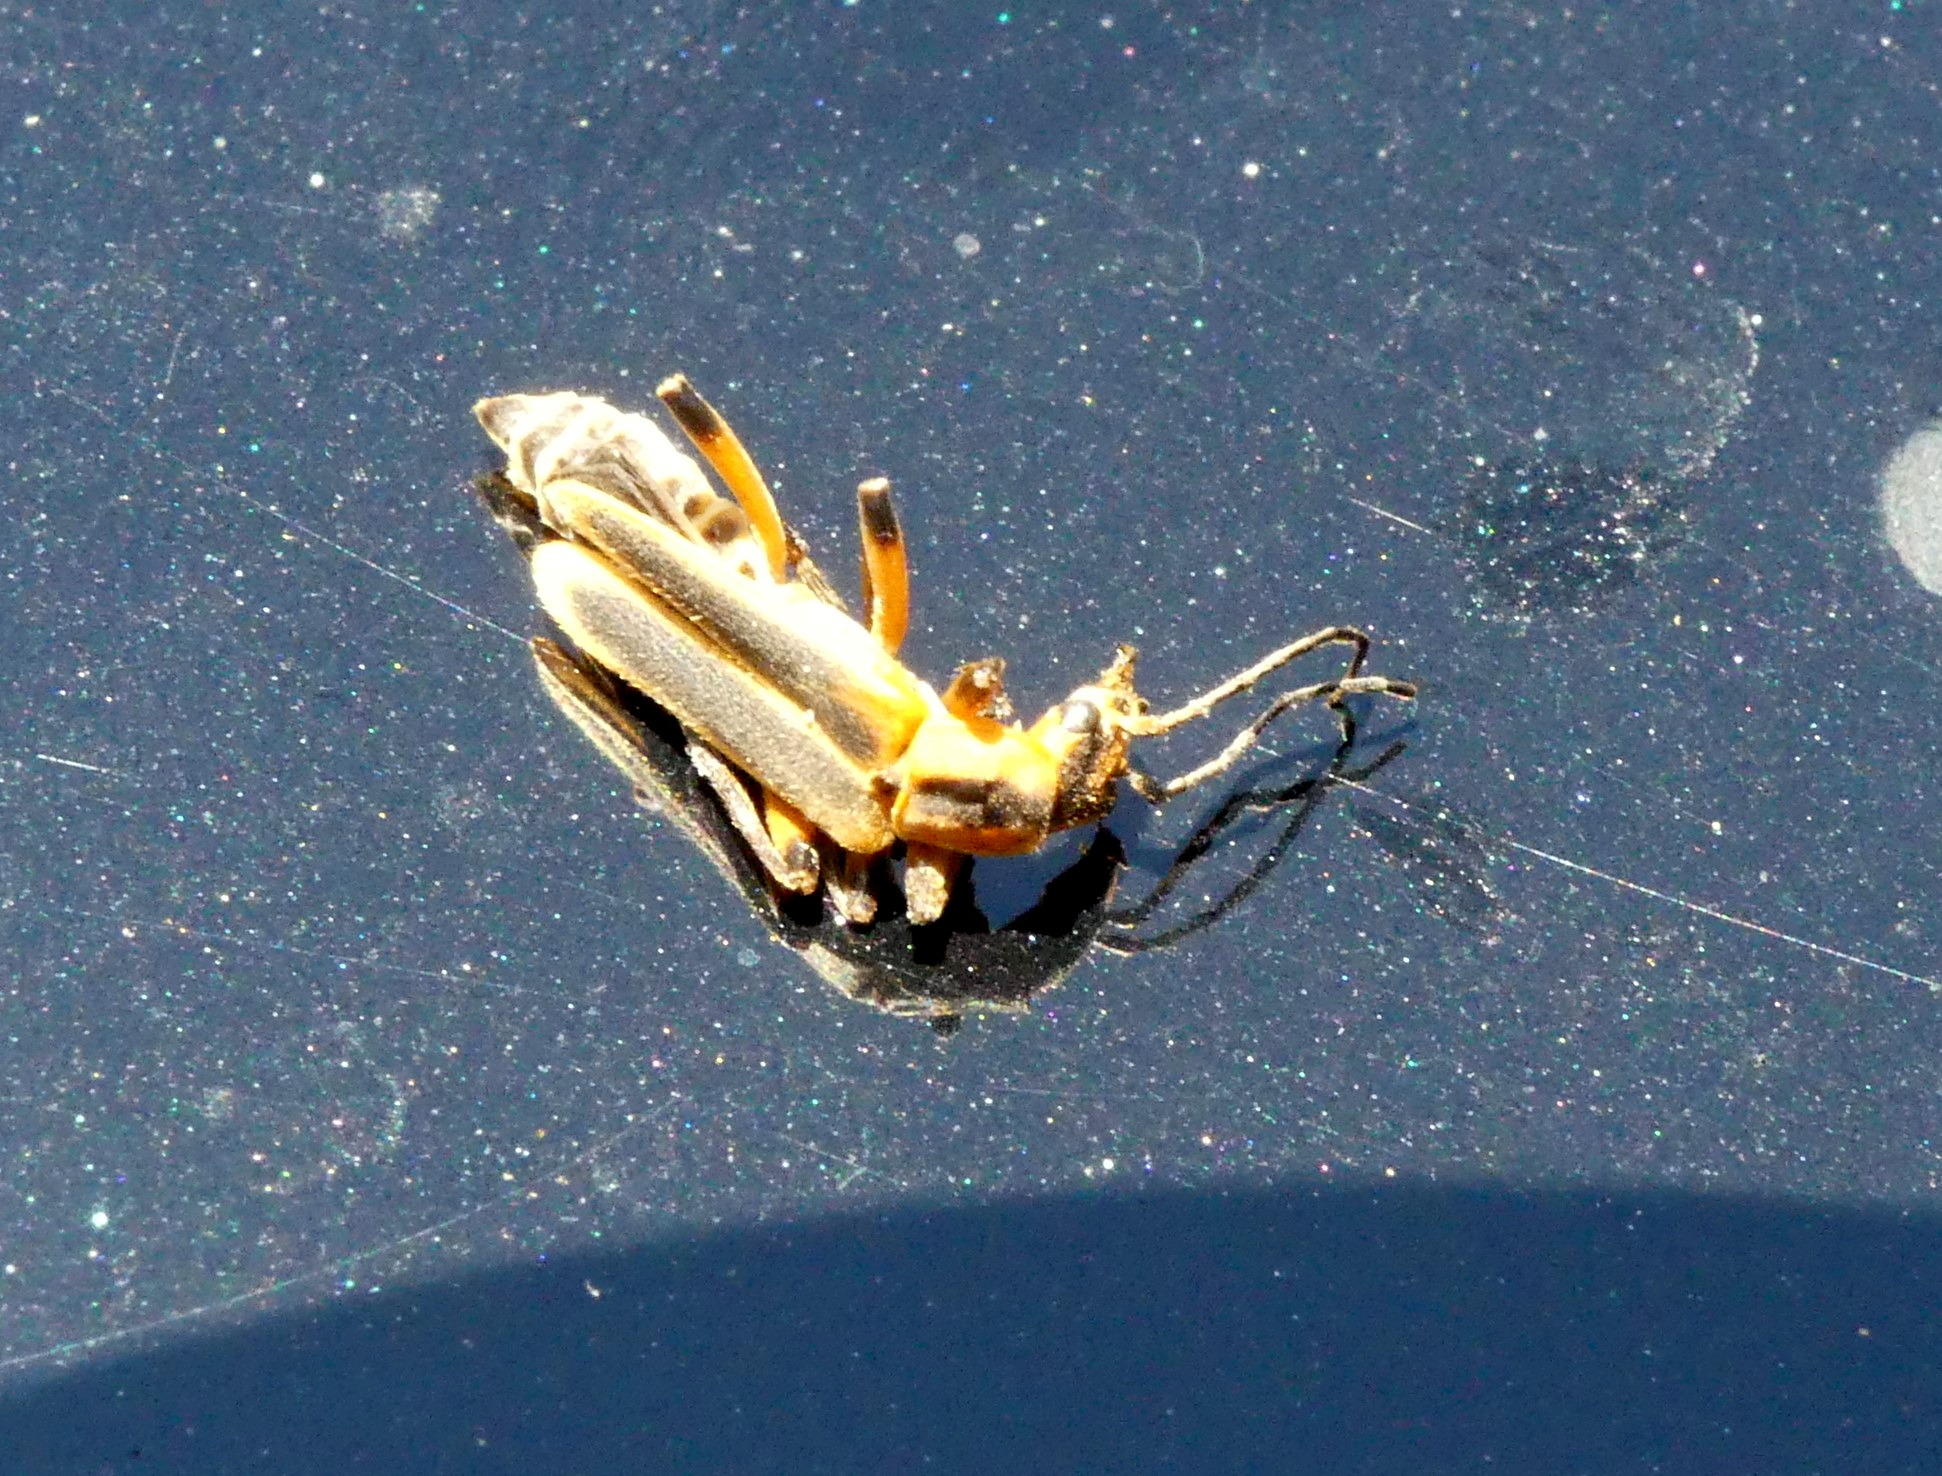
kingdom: Animalia
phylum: Arthropoda
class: Insecta
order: Coleoptera
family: Cantharidae
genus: Chauliognathus
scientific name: Chauliognathus marginatus
